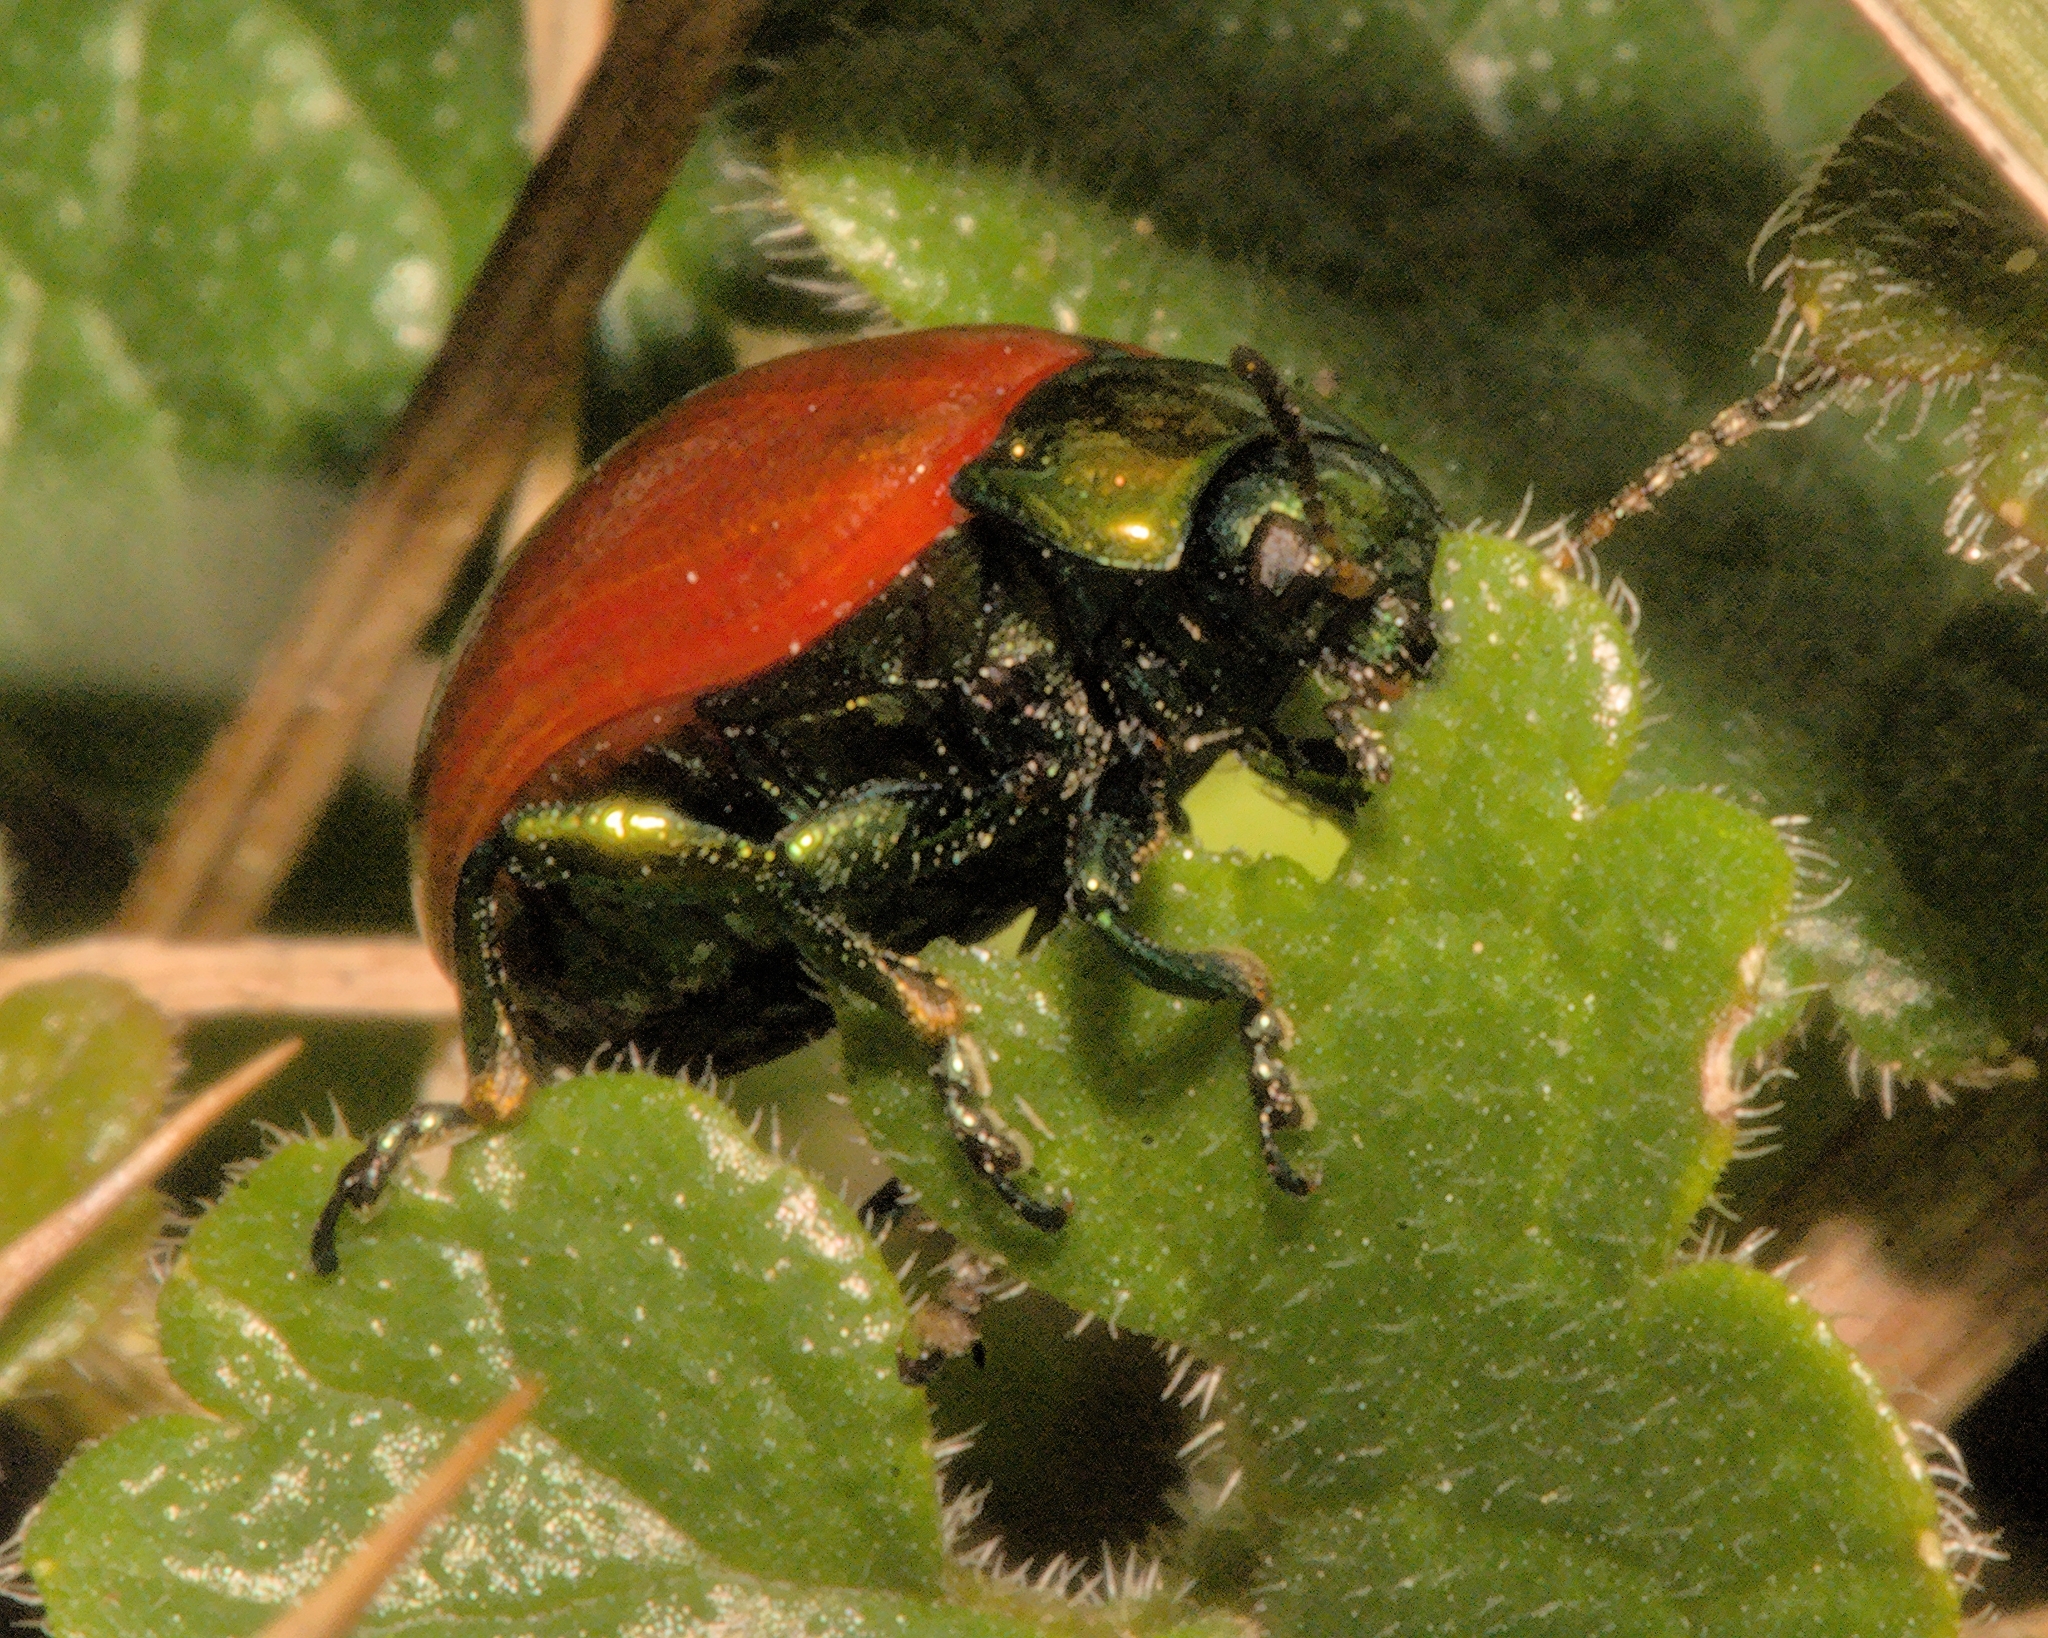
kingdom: Animalia
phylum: Arthropoda
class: Insecta
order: Coleoptera
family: Chrysomelidae
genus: Chrysomela
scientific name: Chrysomela polita
